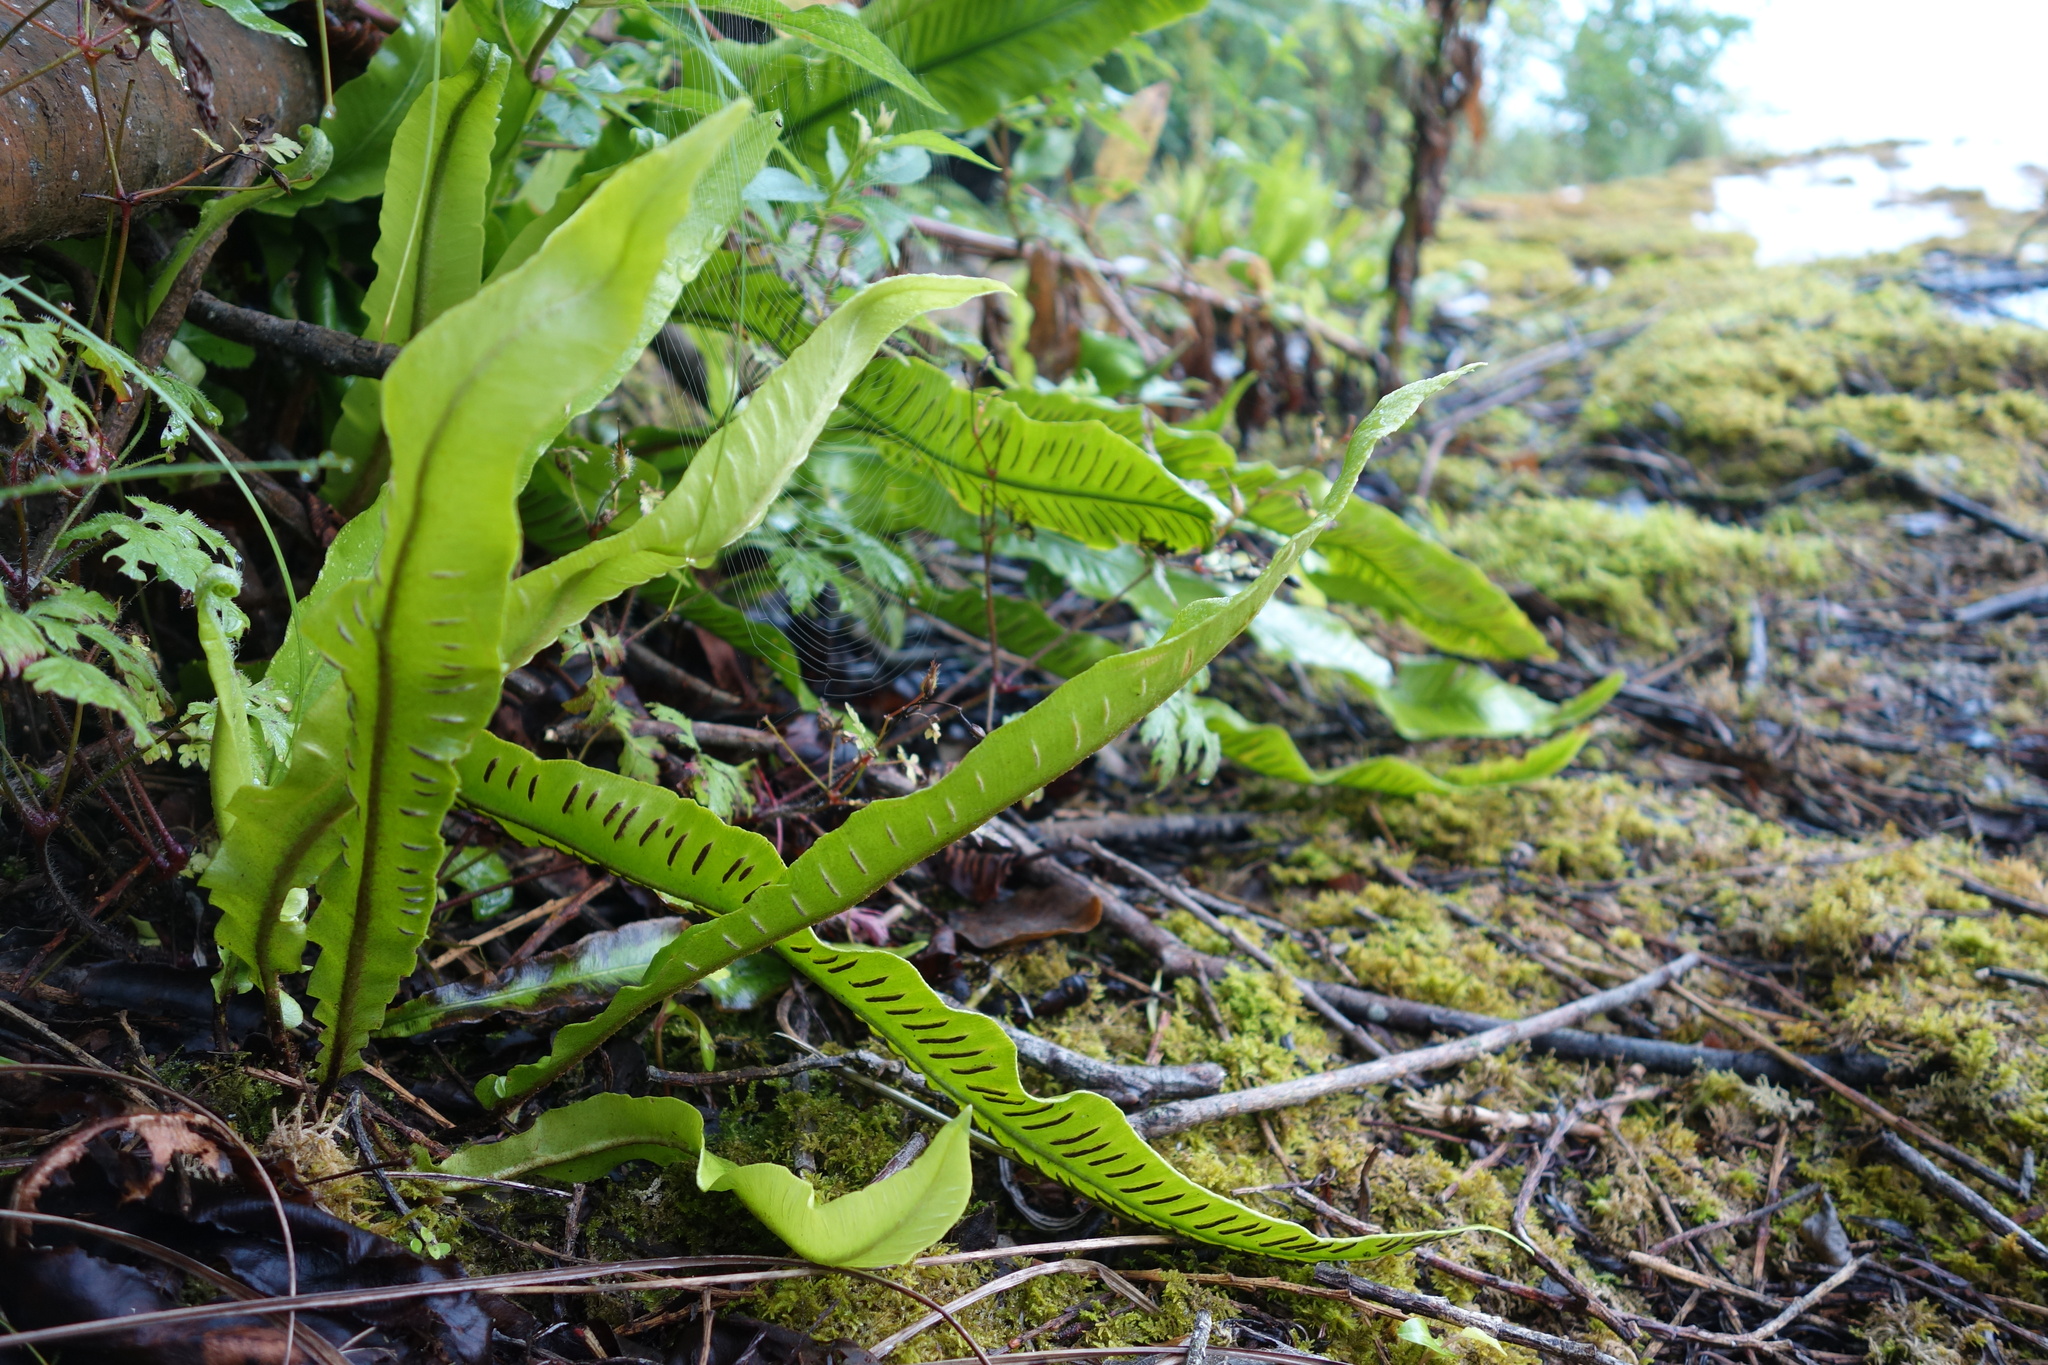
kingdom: Plantae
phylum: Tracheophyta
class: Polypodiopsida
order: Polypodiales
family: Aspleniaceae
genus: Asplenium
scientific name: Asplenium scolopendrium
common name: Hart's-tongue fern
